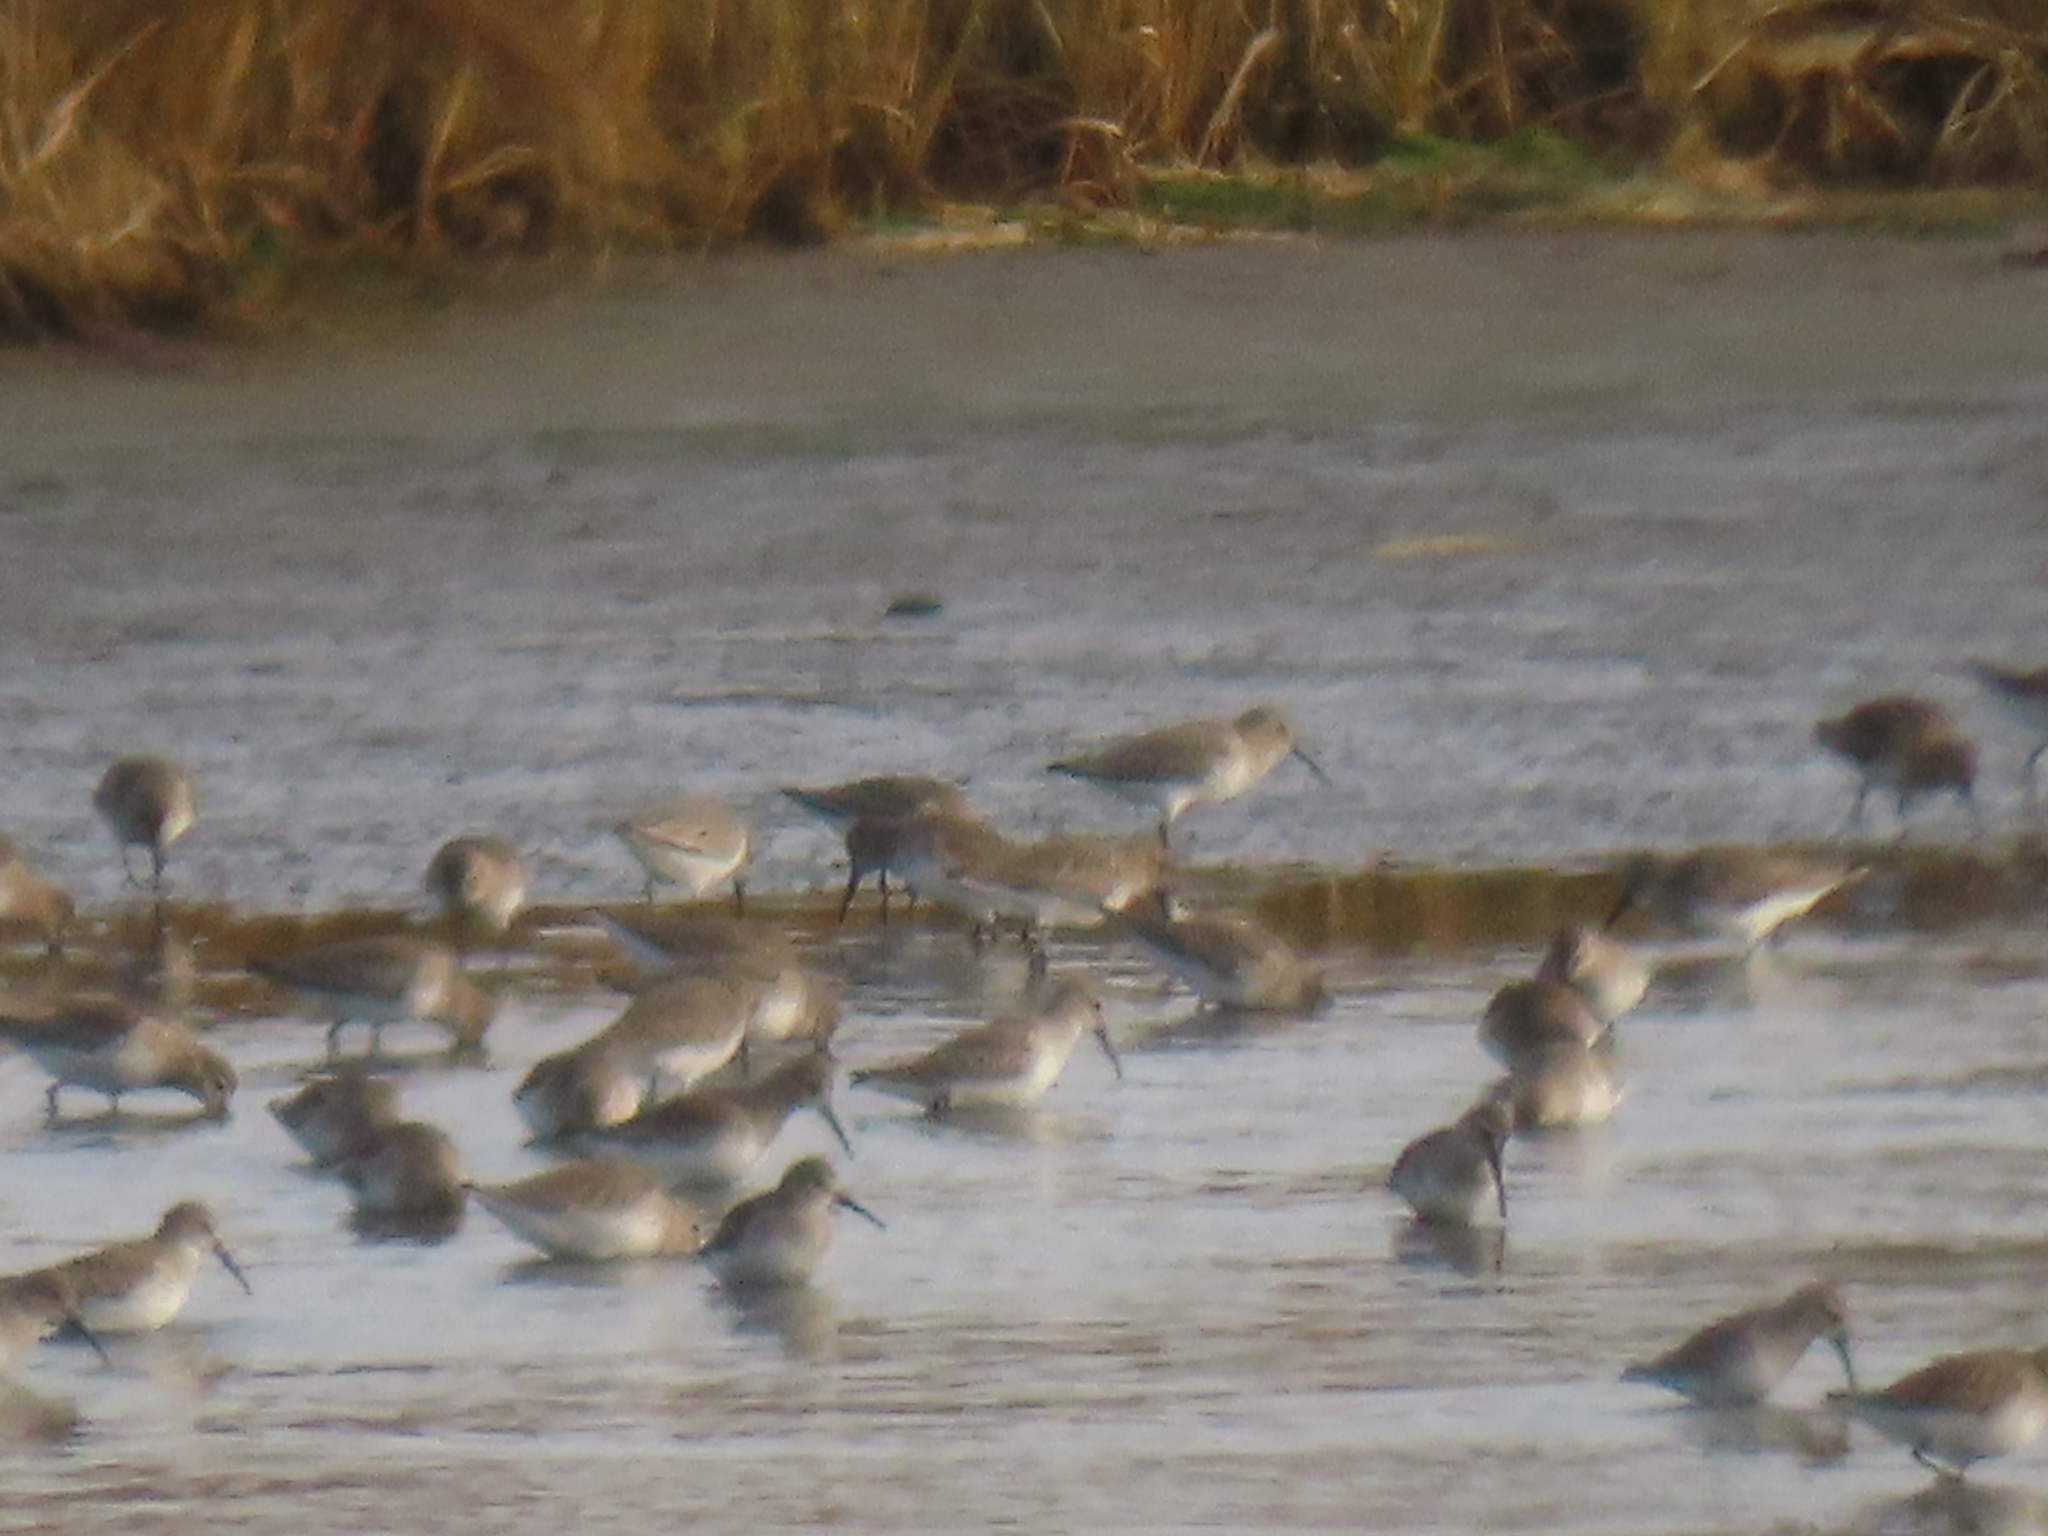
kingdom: Animalia
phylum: Chordata
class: Aves
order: Charadriiformes
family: Scolopacidae
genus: Calidris
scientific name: Calidris alpina
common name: Dunlin
